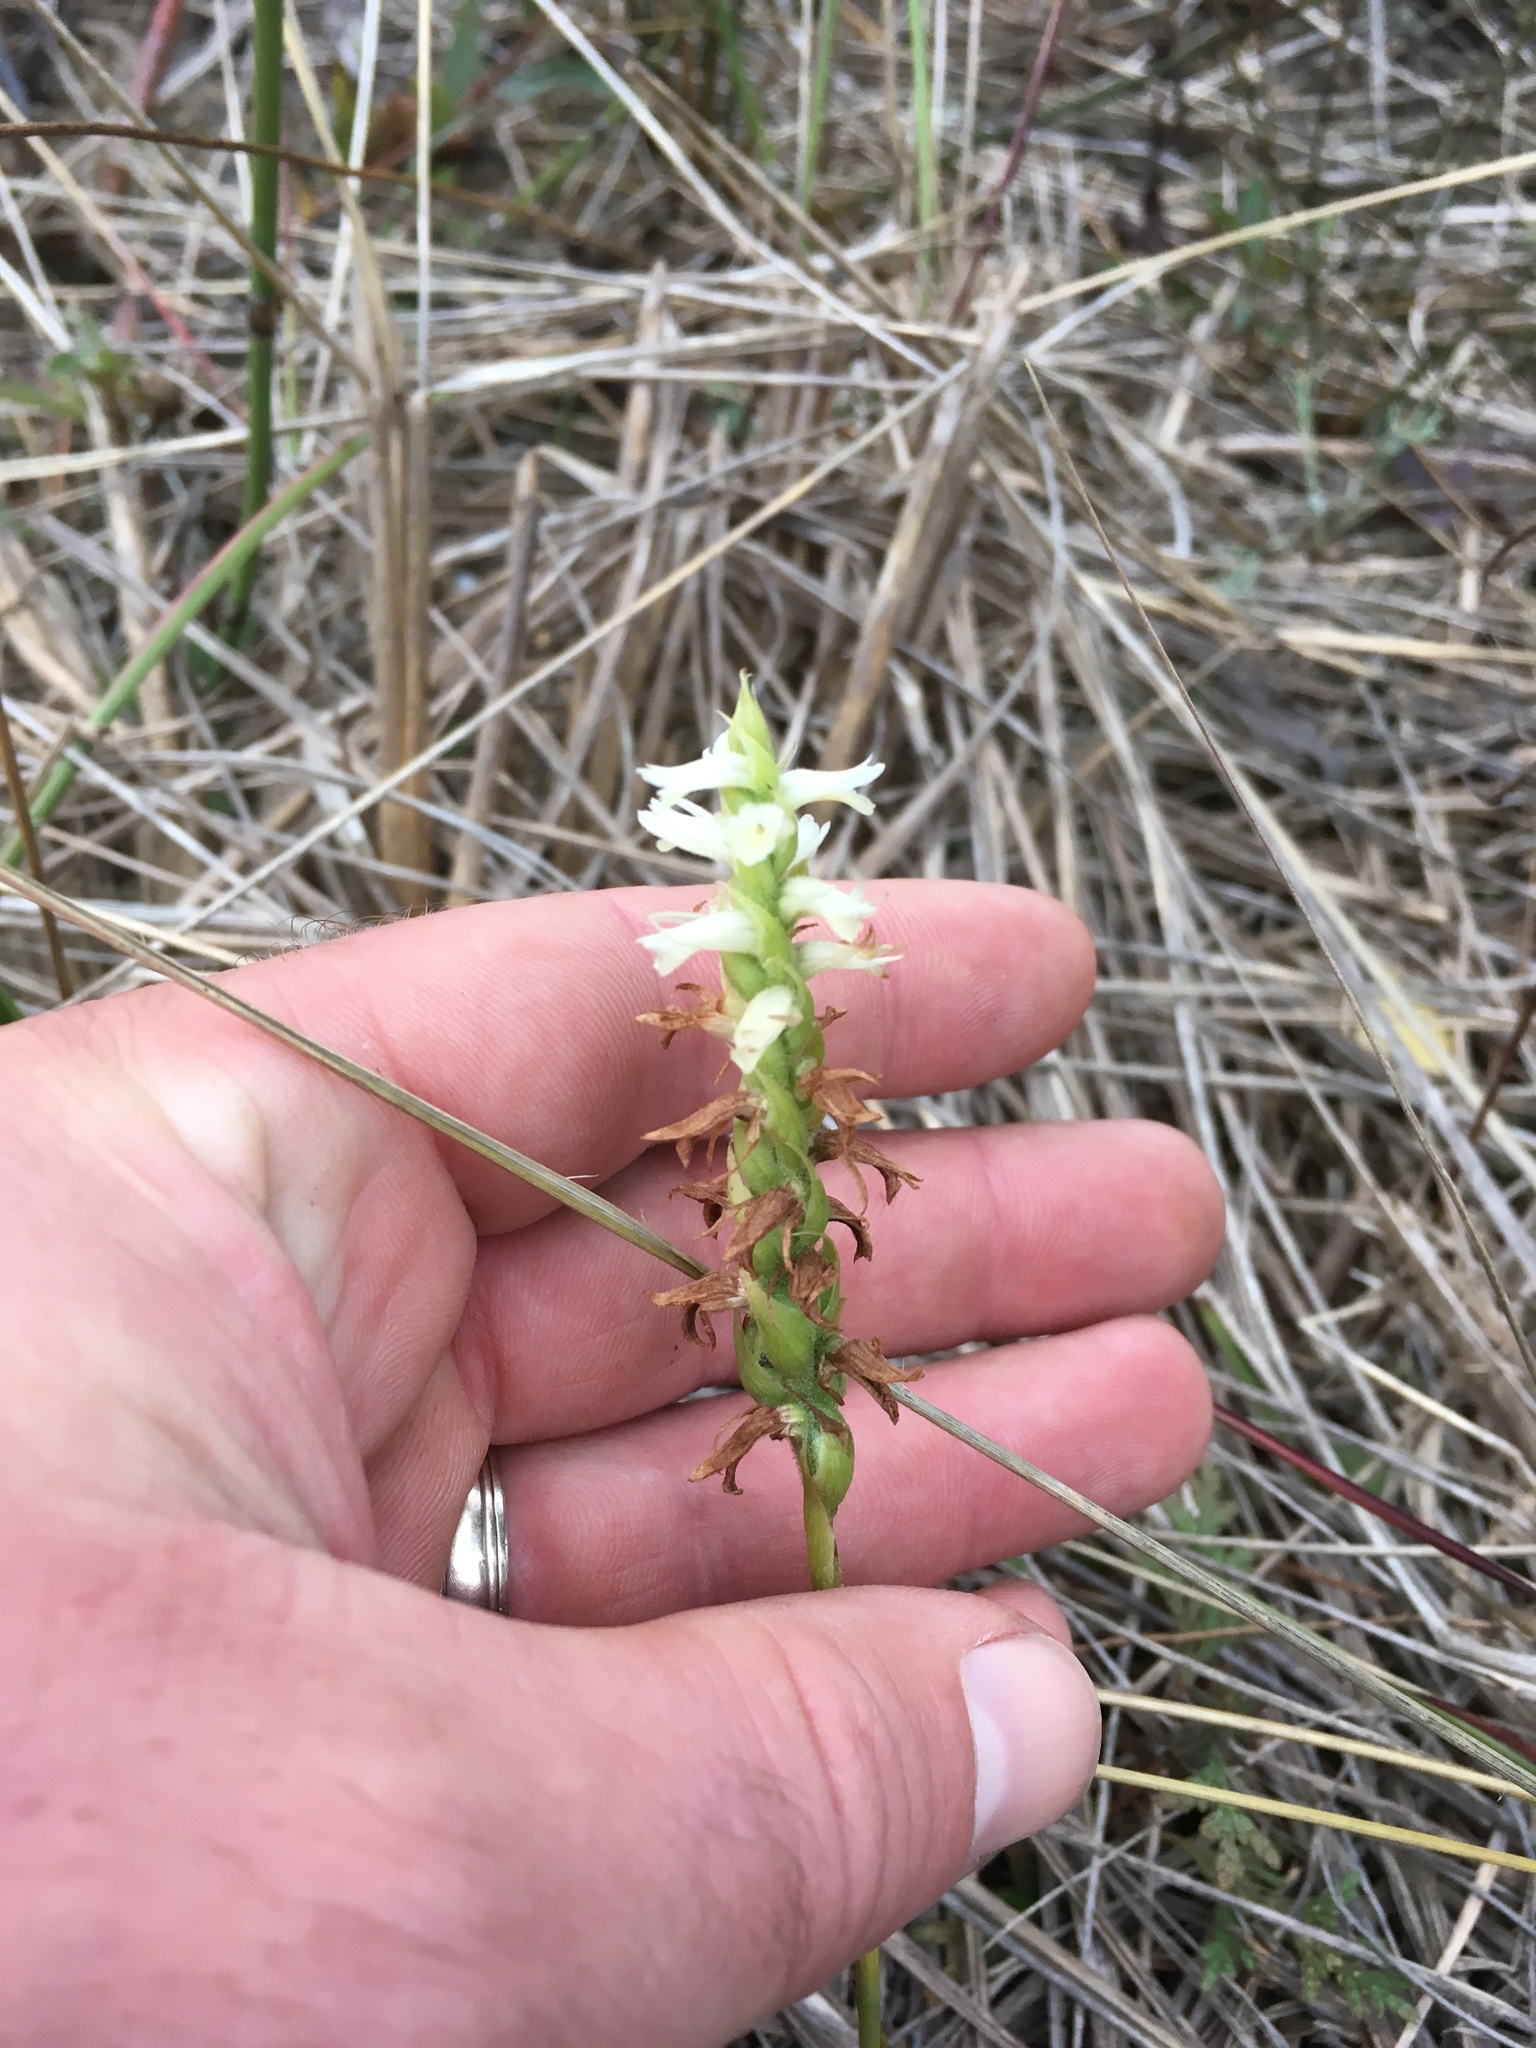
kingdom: Plantae
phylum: Tracheophyta
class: Liliopsida
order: Asparagales
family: Orchidaceae
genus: Spiranthes
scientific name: Spiranthes magnicamporum
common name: Great plains ladies'-tresses
